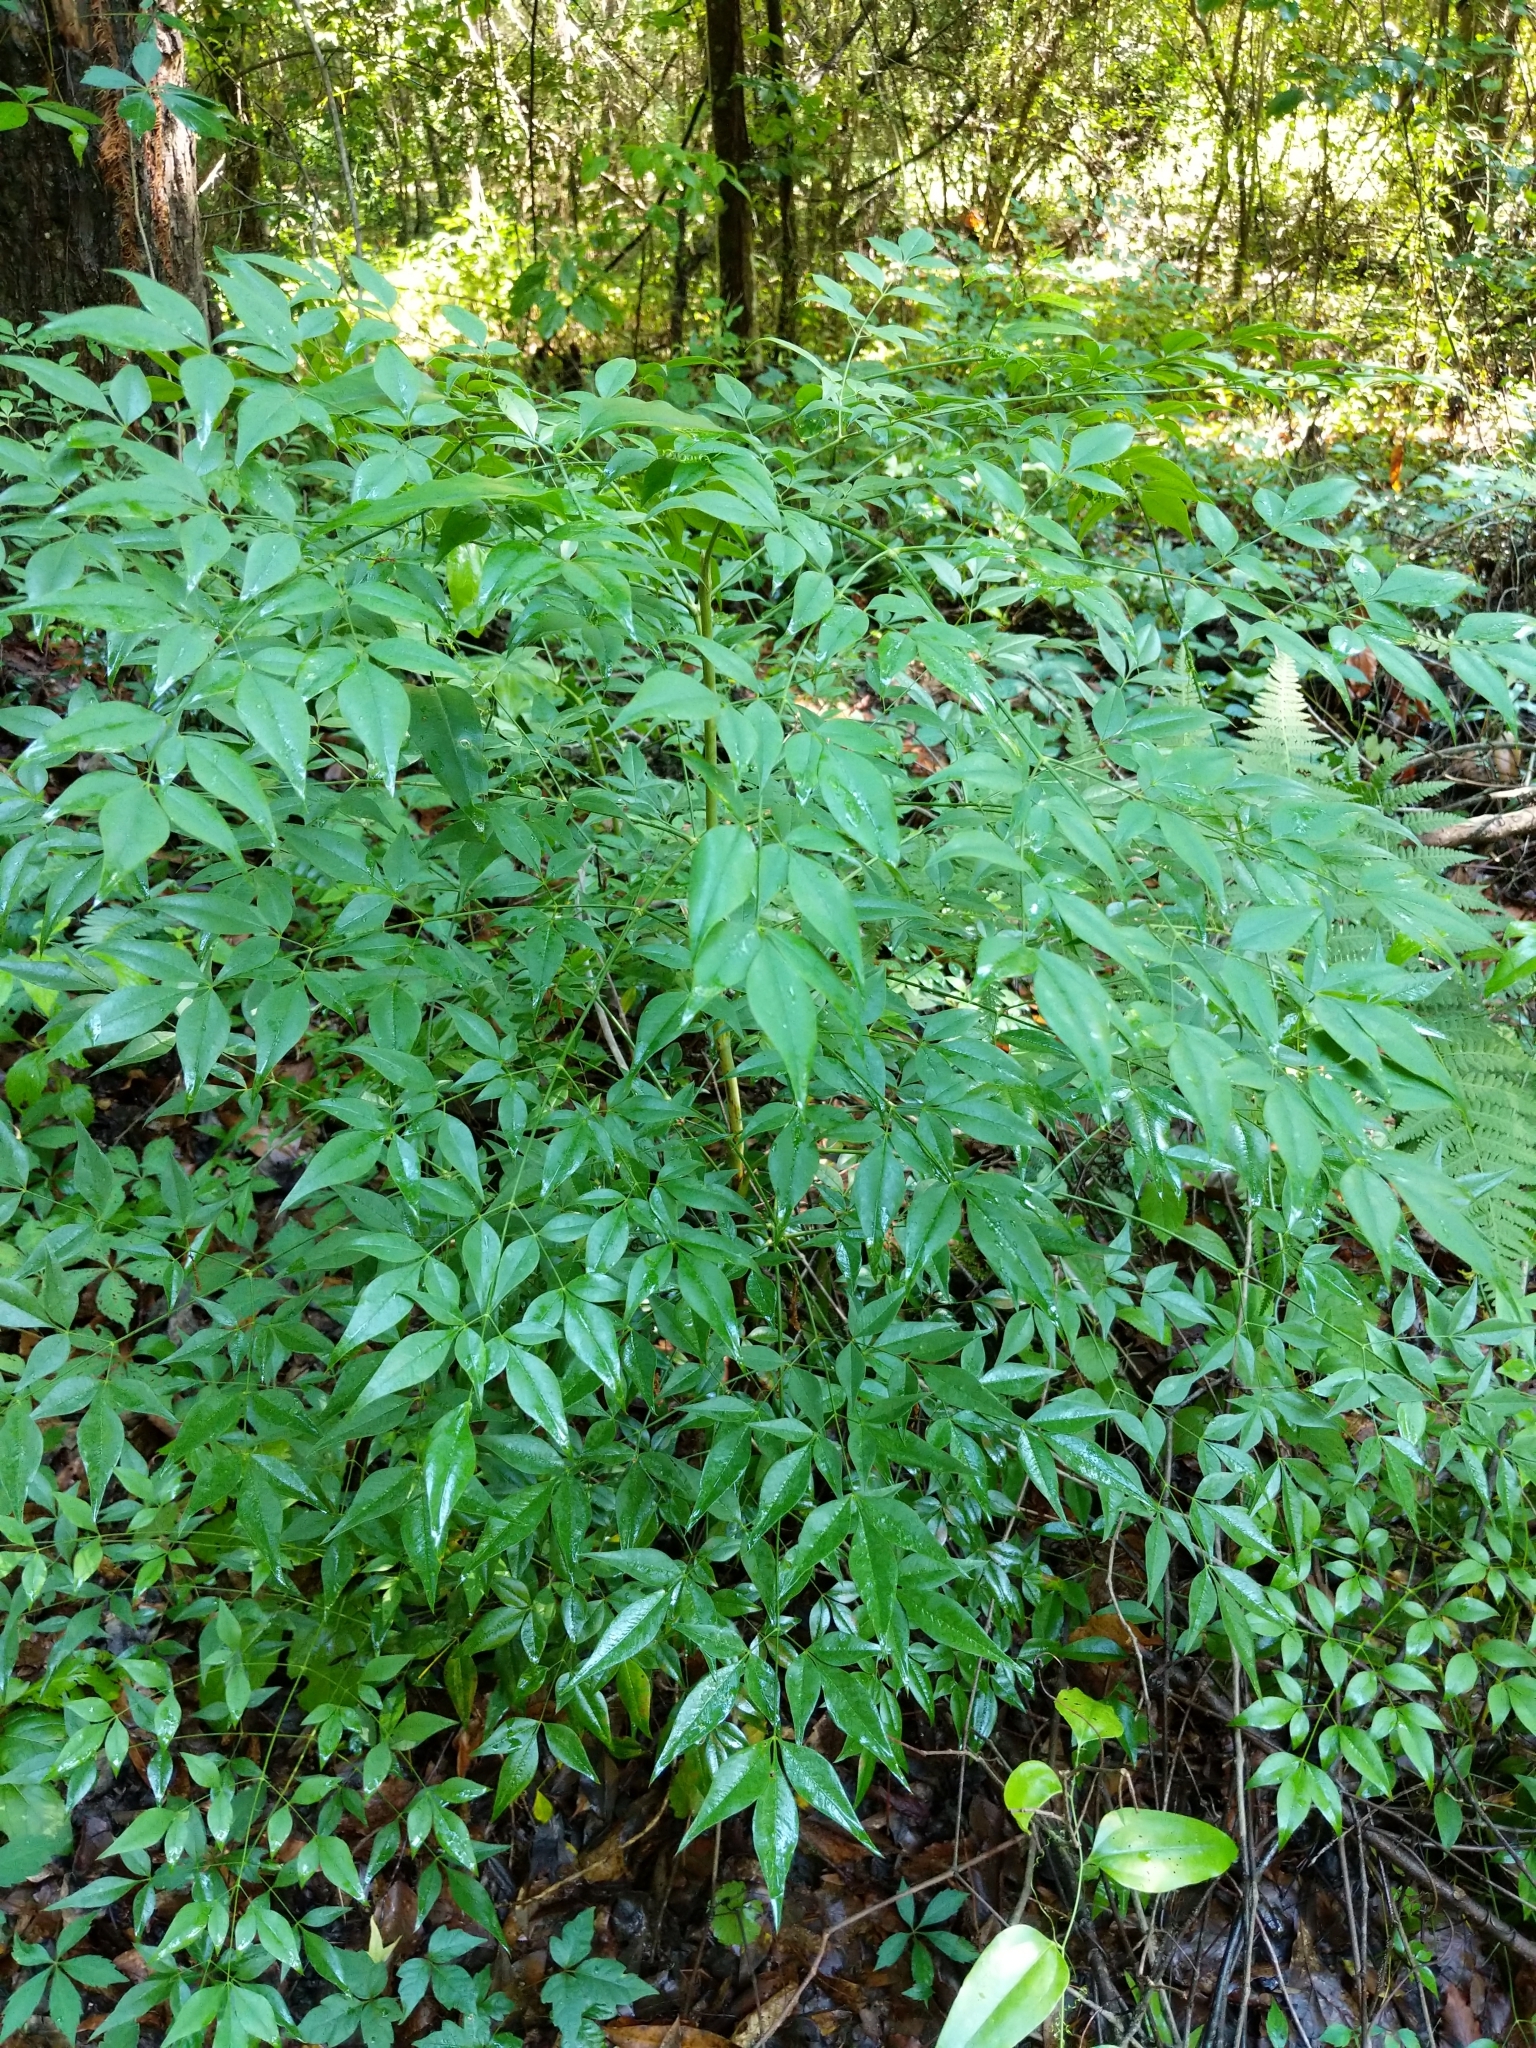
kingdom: Plantae
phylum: Tracheophyta
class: Magnoliopsida
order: Ranunculales
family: Berberidaceae
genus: Nandina
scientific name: Nandina domestica
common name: Sacred bamboo
